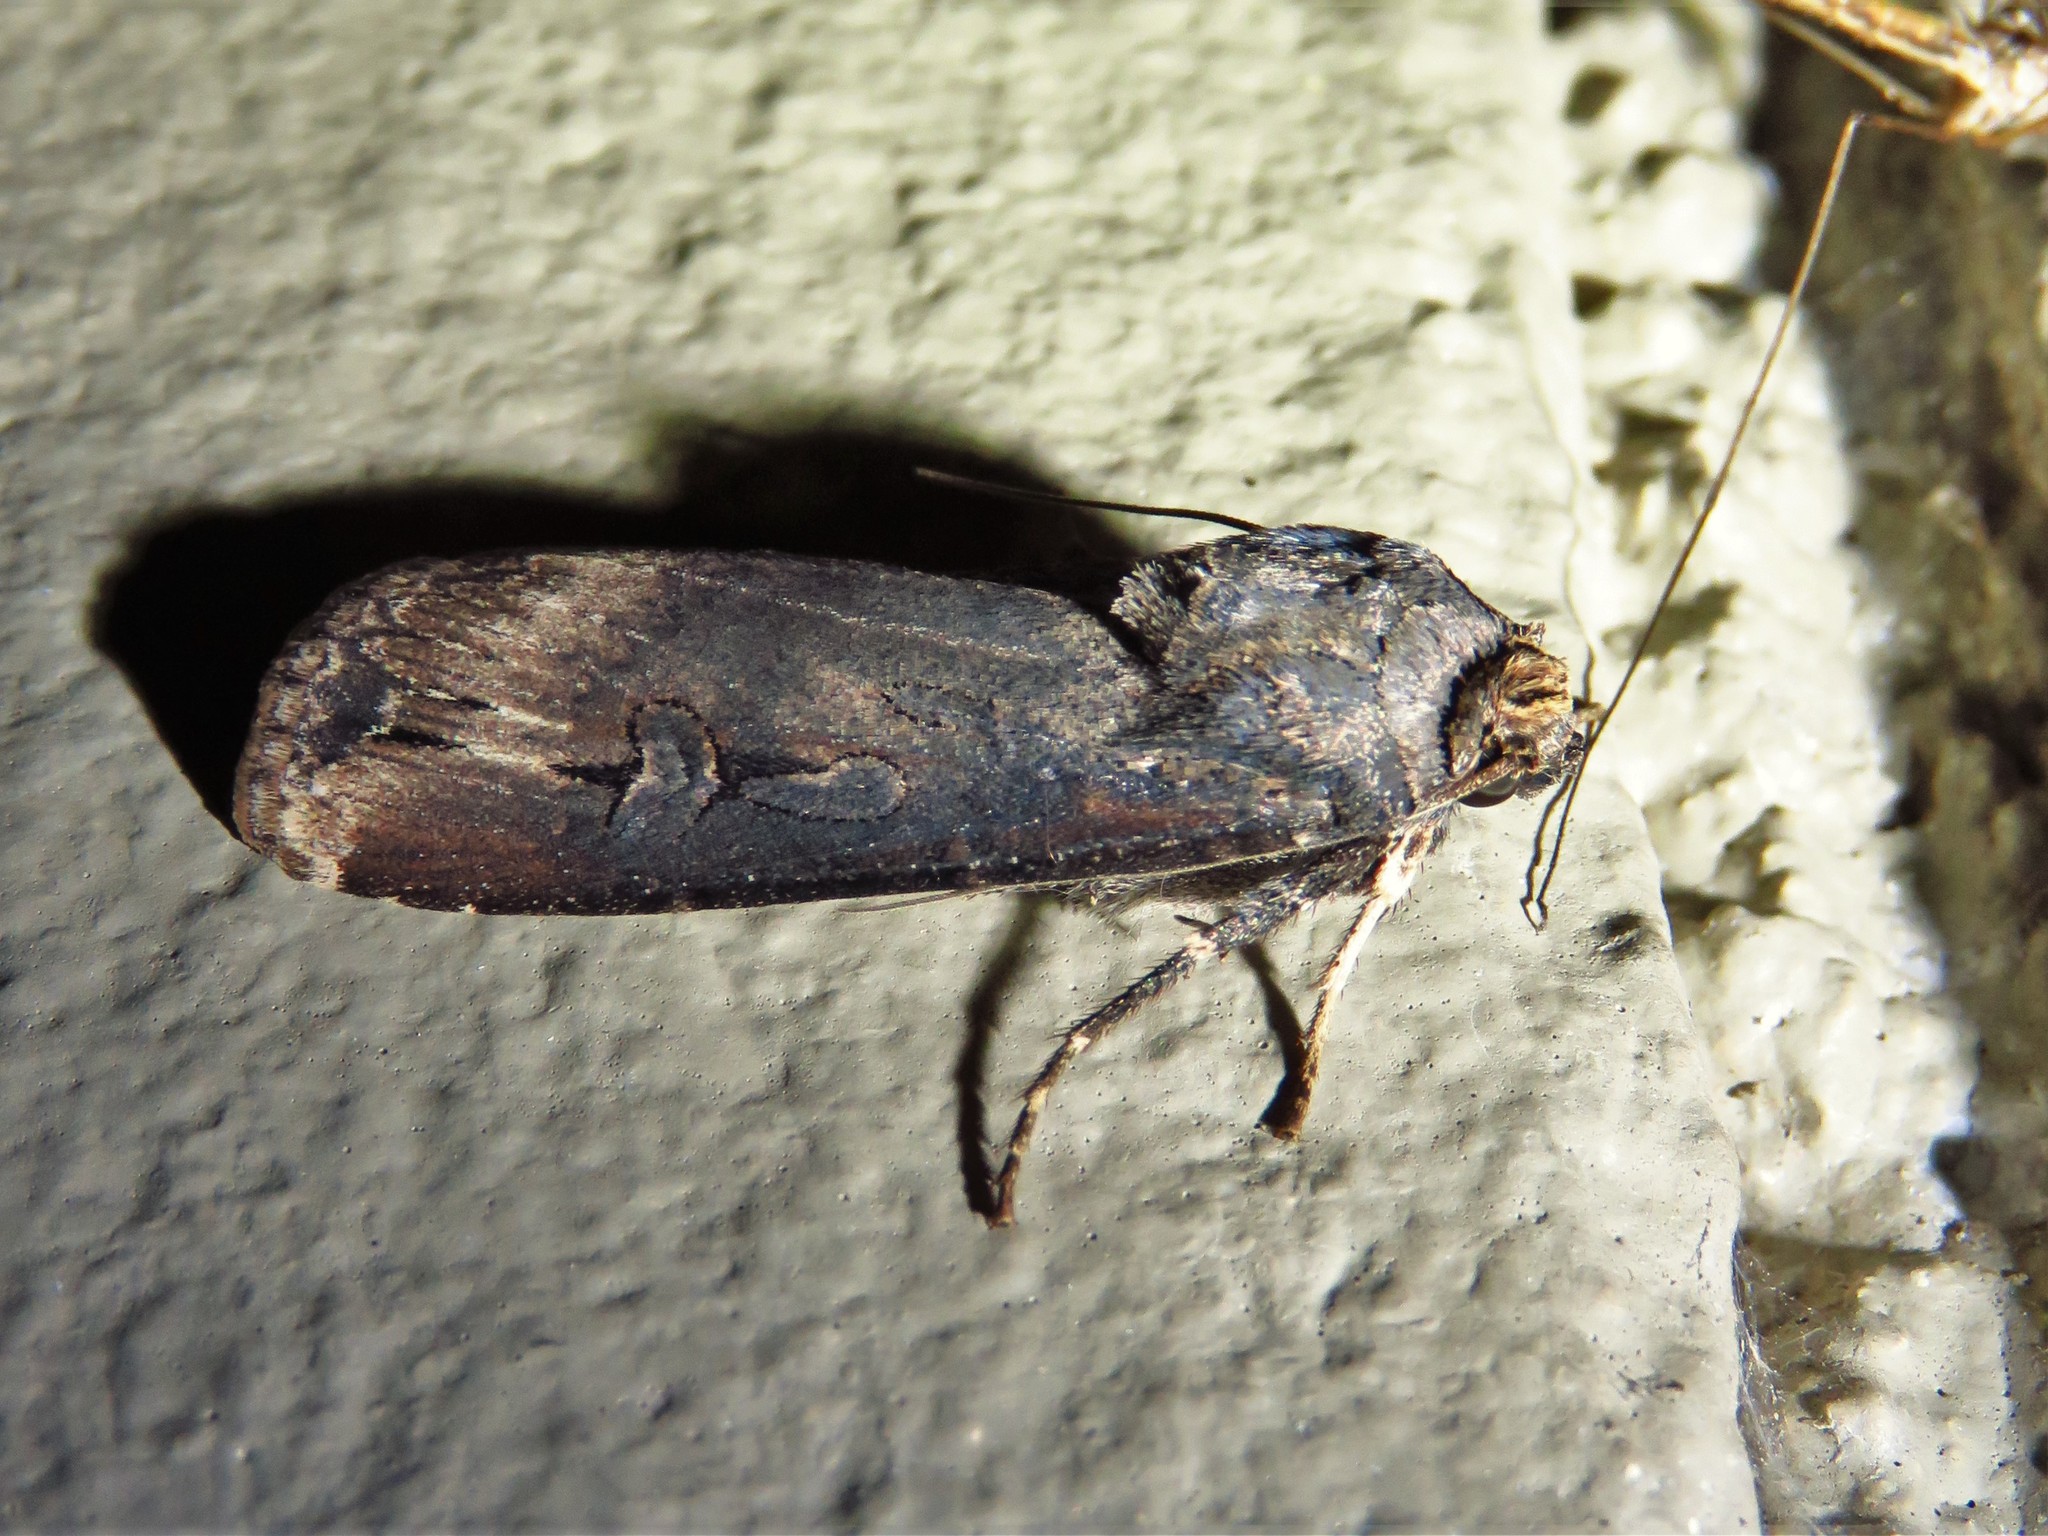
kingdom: Animalia
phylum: Arthropoda
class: Insecta
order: Lepidoptera
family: Noctuidae
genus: Agrotis
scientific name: Agrotis ipsilon
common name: Dark sword-grass
